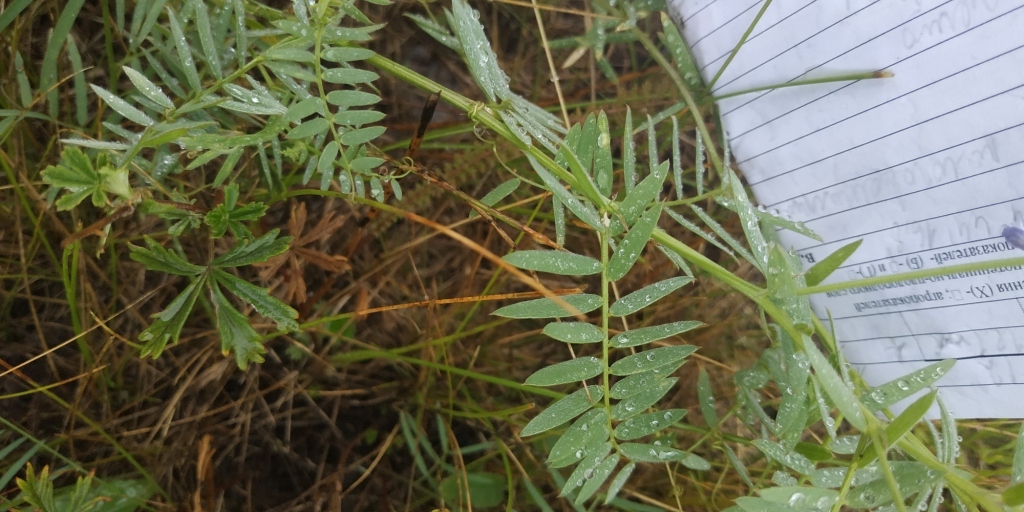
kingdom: Plantae
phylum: Tracheophyta
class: Magnoliopsida
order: Fabales
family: Fabaceae
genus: Vicia
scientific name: Vicia cracca
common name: Bird vetch
